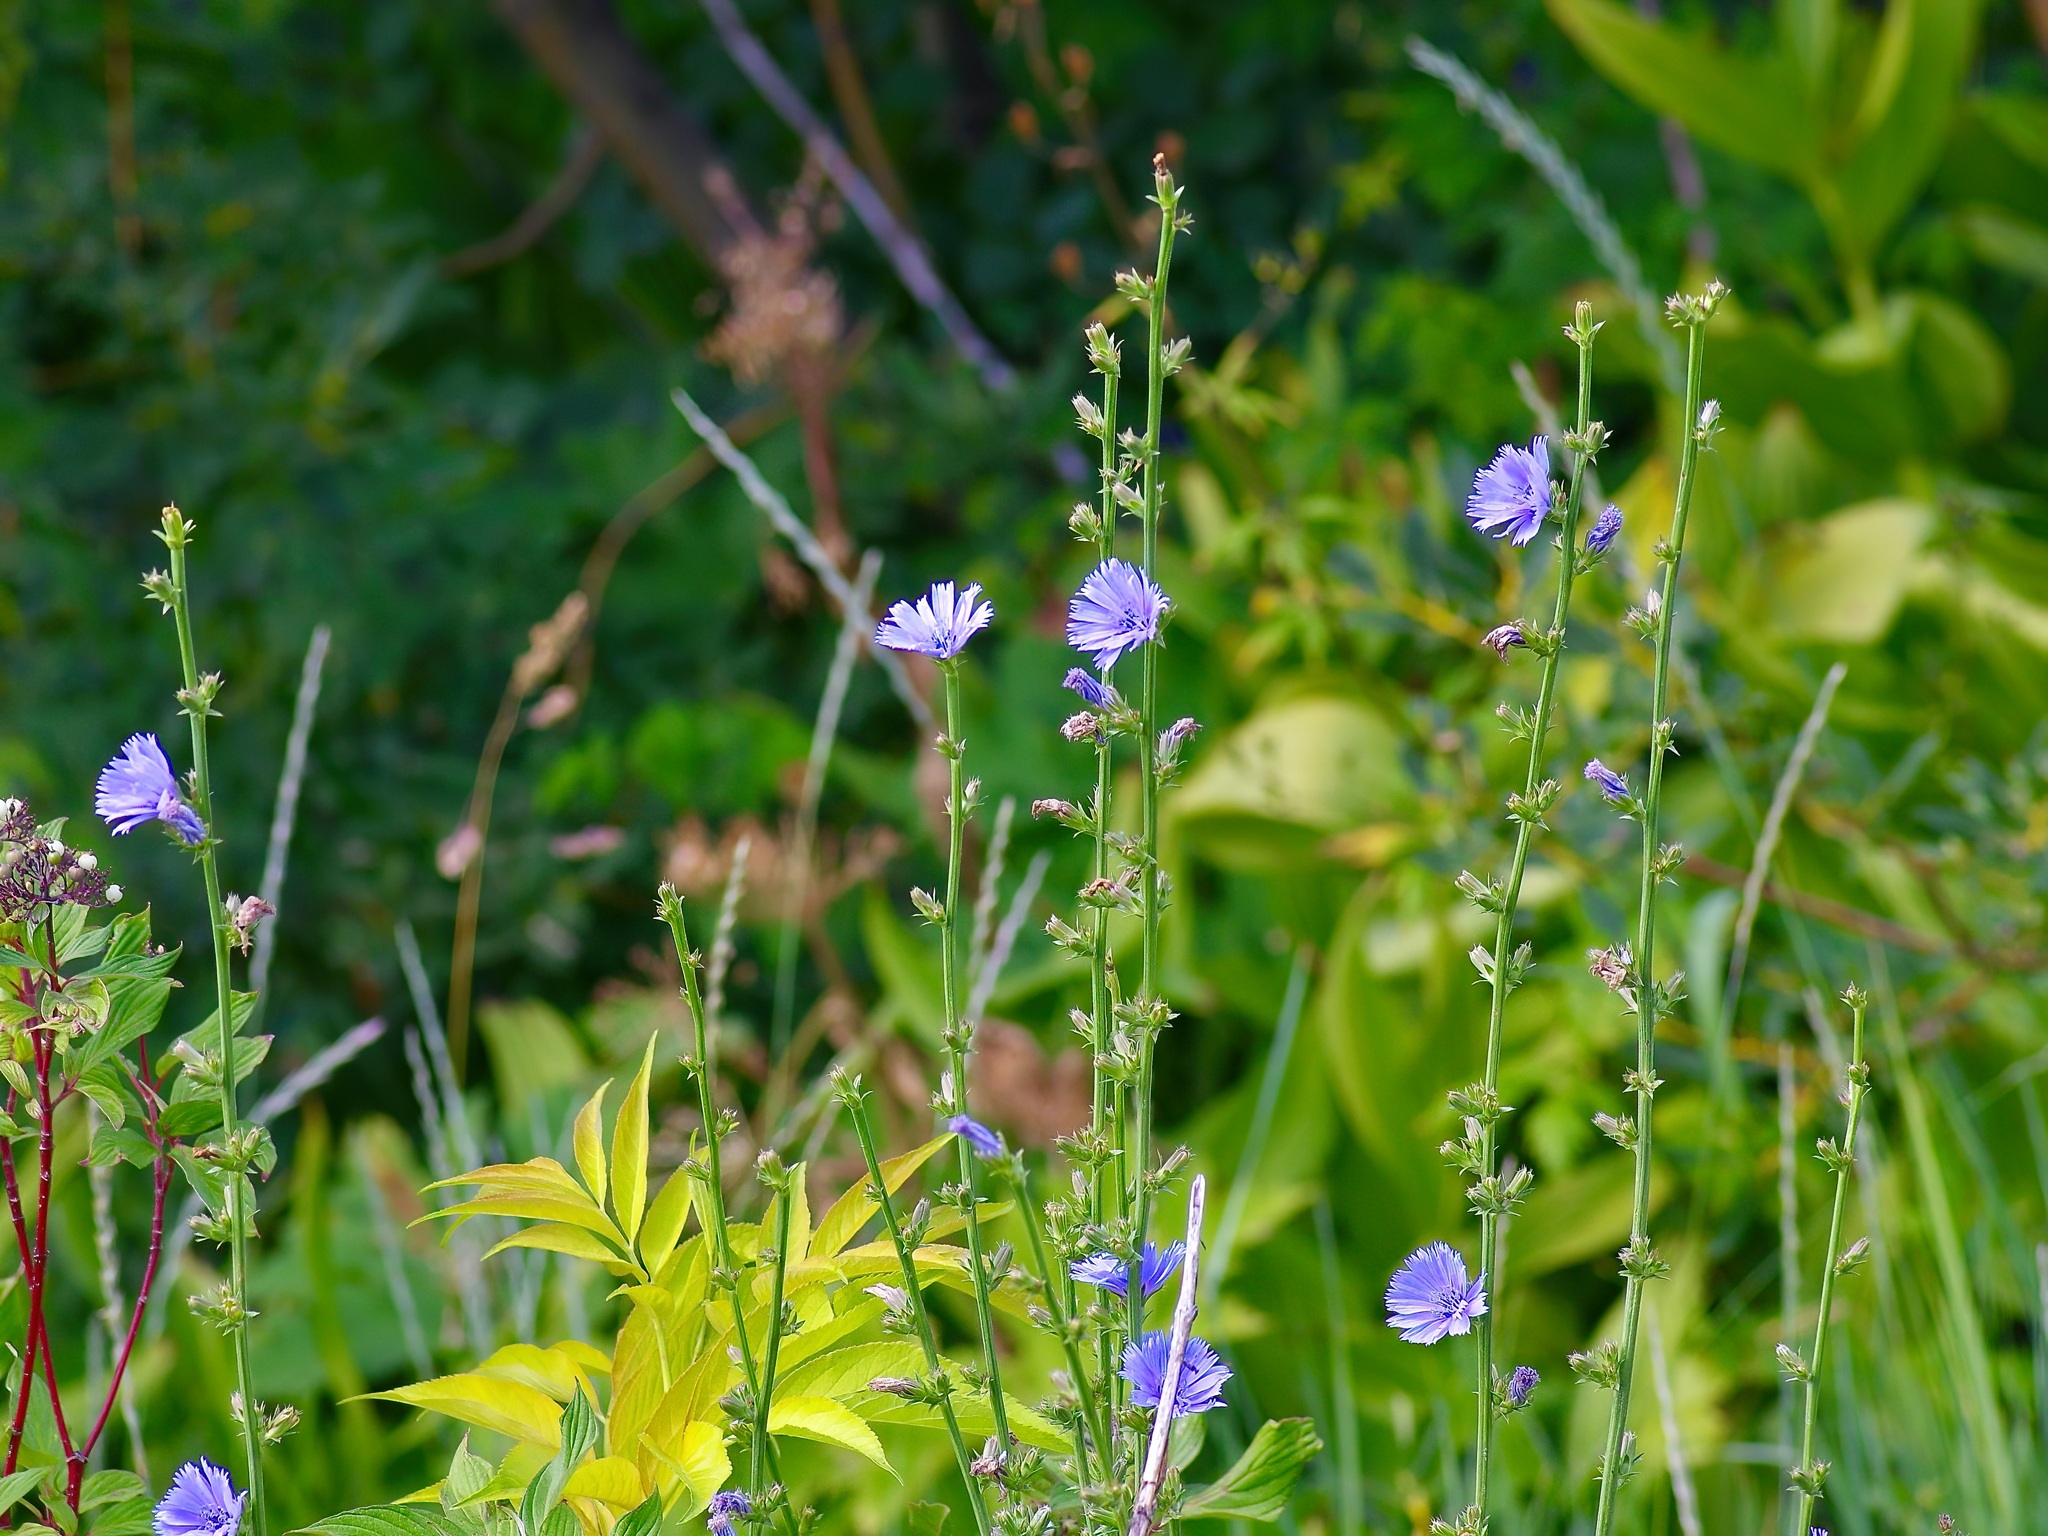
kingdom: Plantae
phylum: Tracheophyta
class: Magnoliopsida
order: Asterales
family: Asteraceae
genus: Cichorium
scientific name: Cichorium intybus
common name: Chicory
